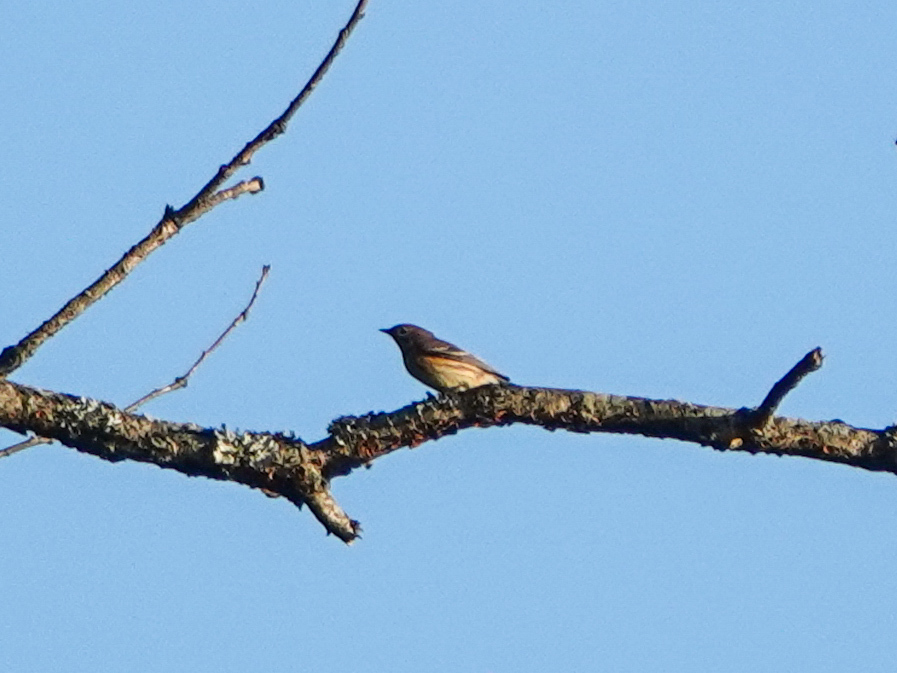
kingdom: Animalia
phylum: Chordata
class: Aves
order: Passeriformes
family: Parulidae
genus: Setophaga
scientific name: Setophaga coronata
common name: Myrtle warbler
